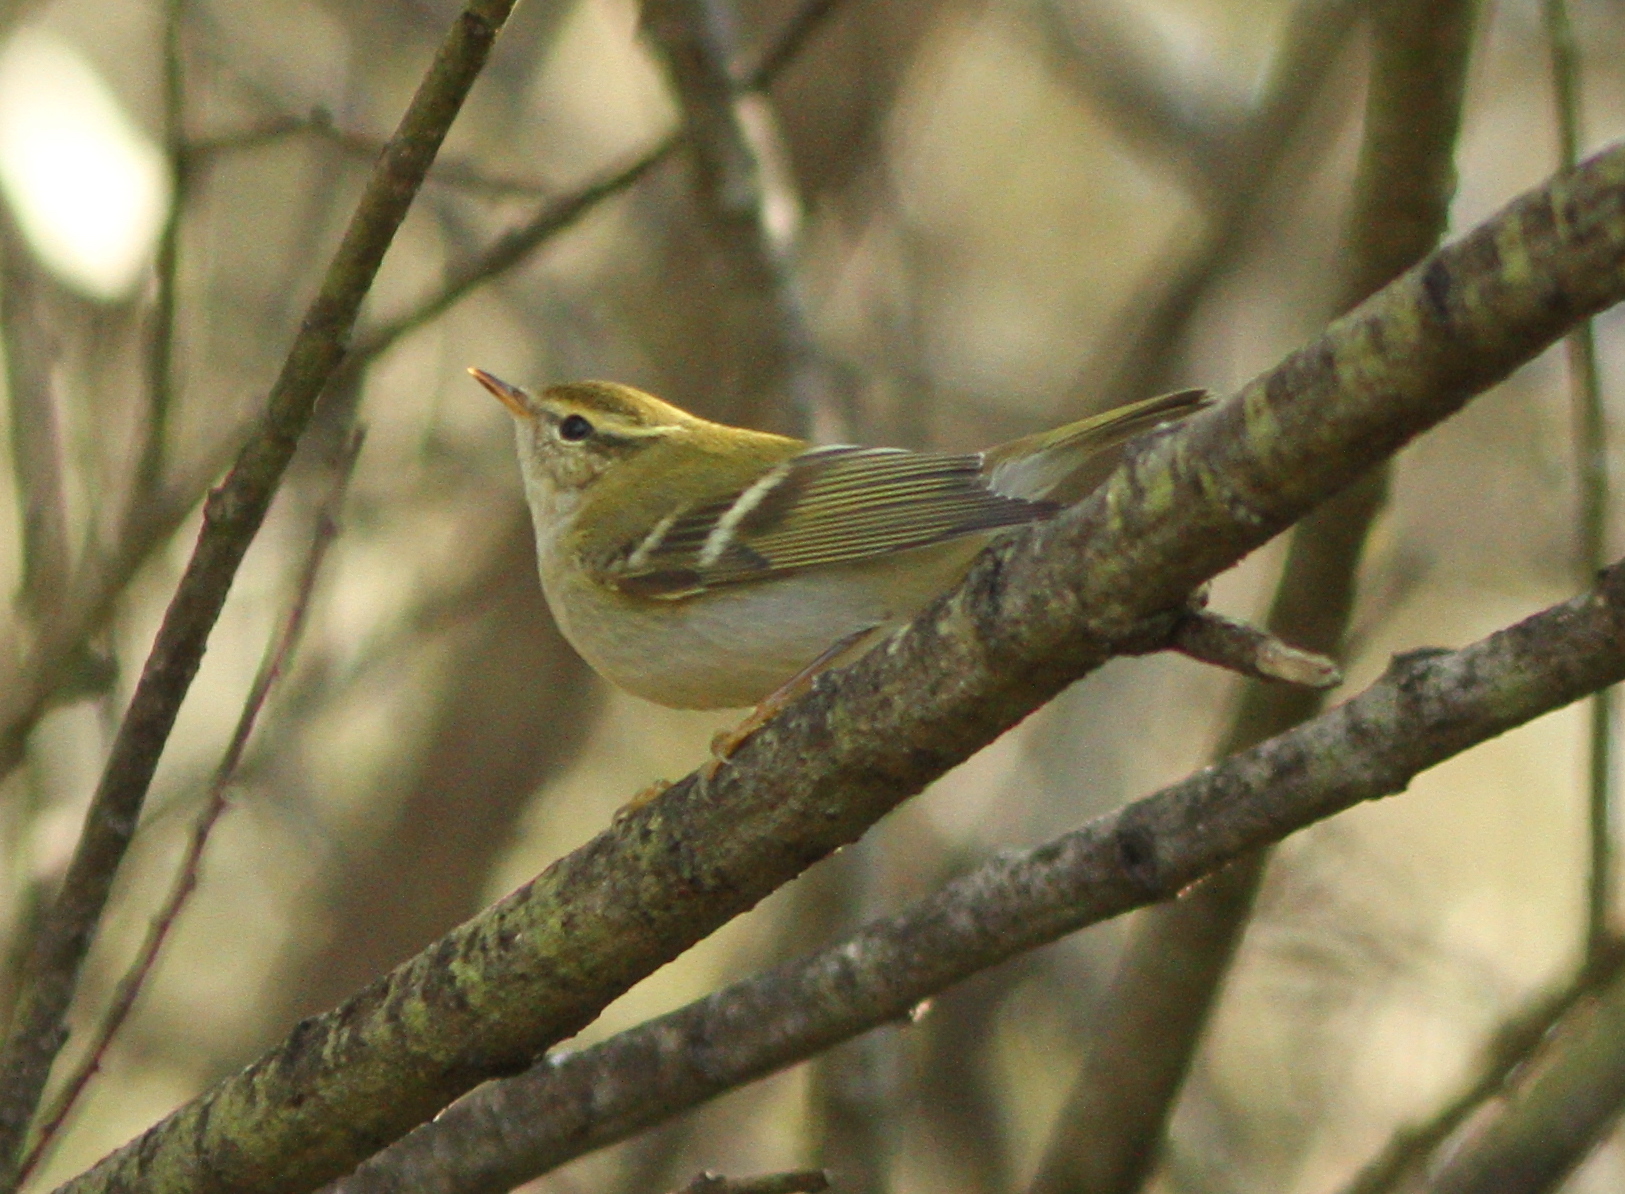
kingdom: Animalia
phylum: Chordata
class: Aves
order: Passeriformes
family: Phylloscopidae
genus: Phylloscopus
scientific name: Phylloscopus inornatus
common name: Yellow-browed warbler
